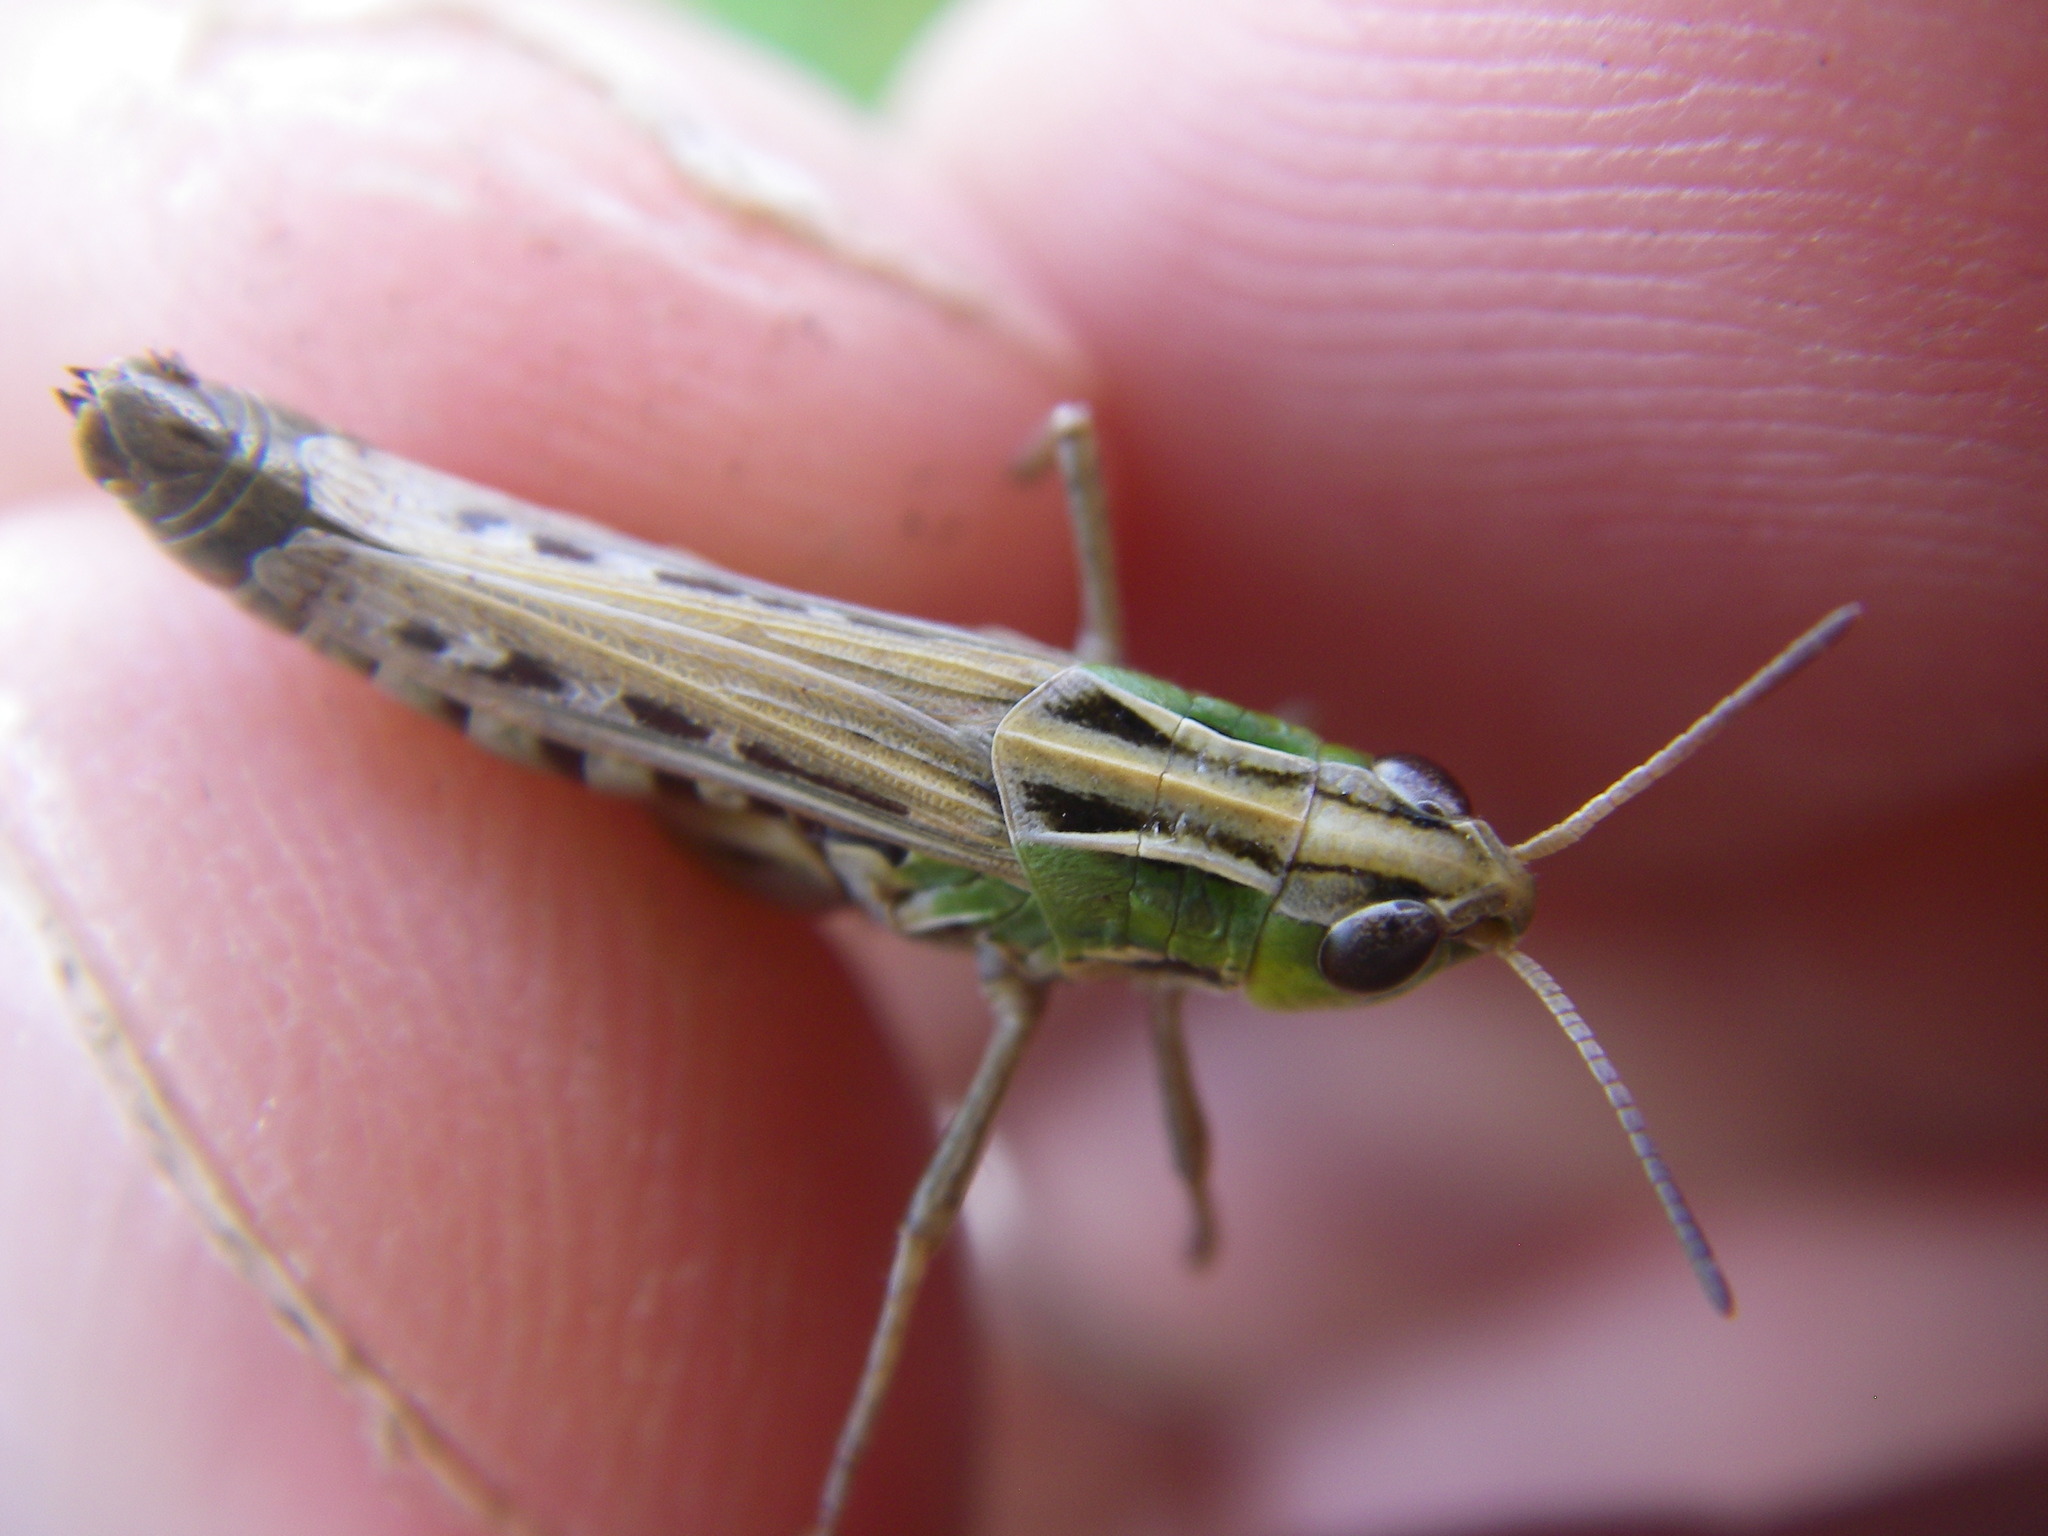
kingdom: Animalia
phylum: Arthropoda
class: Insecta
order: Orthoptera
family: Acrididae
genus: Stenobothrus
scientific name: Stenobothrus stigmaticus
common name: Lesser mottled grasshopper
